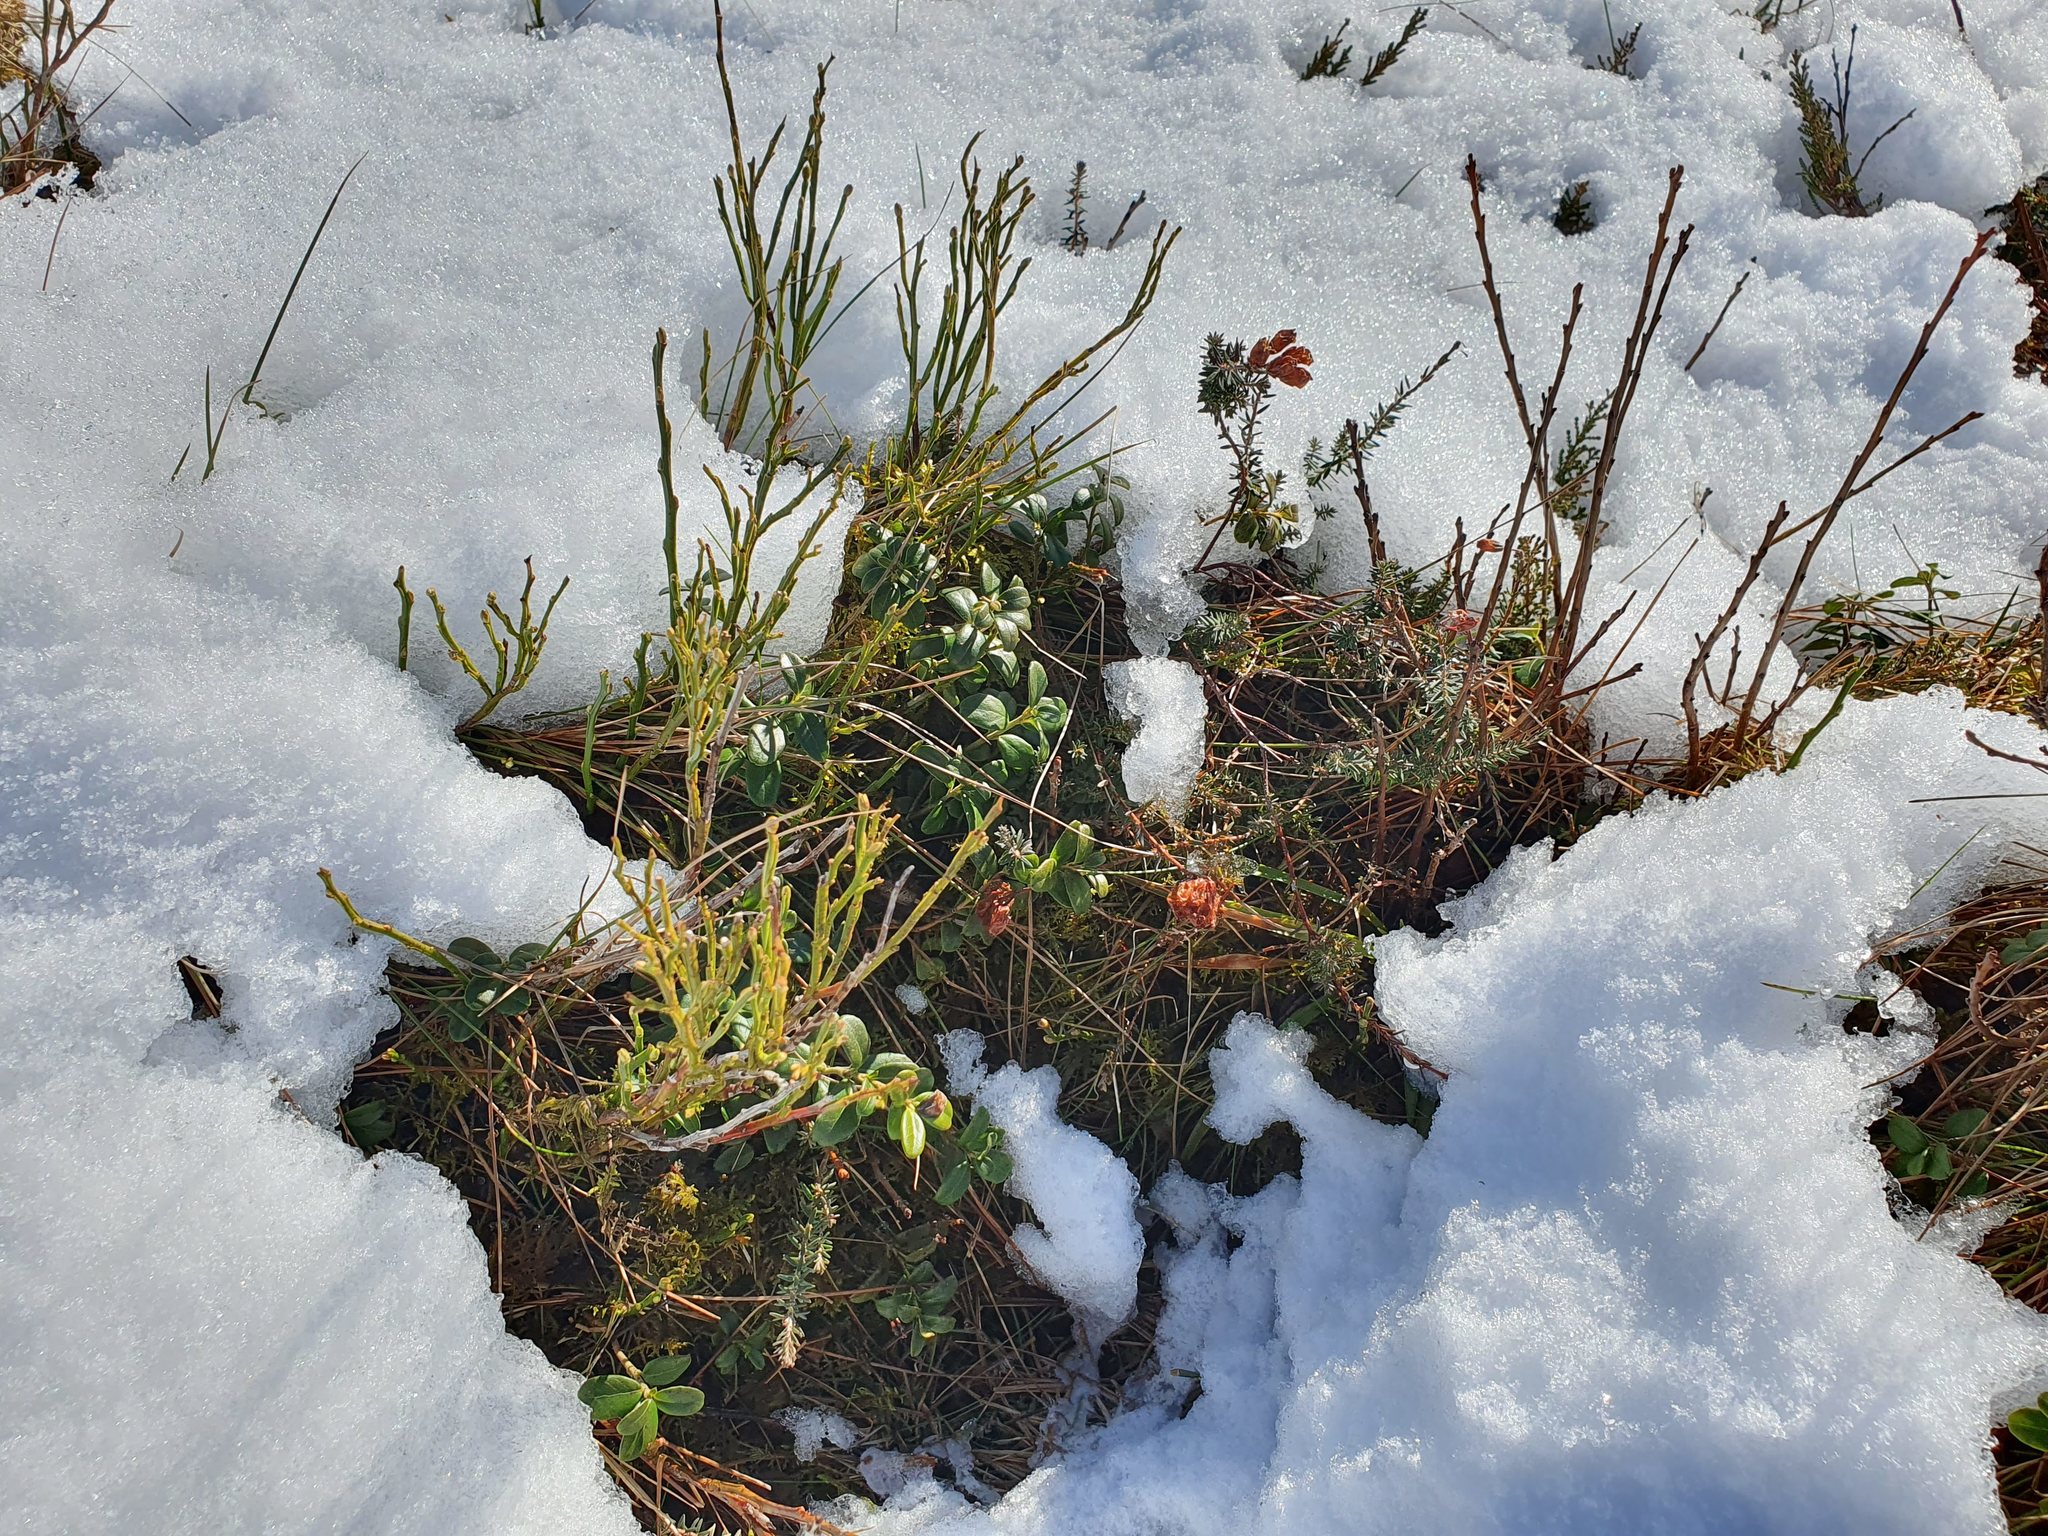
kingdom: Plantae
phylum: Tracheophyta
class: Magnoliopsida
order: Ericales
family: Ericaceae
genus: Vaccinium
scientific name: Vaccinium vitis-idaea
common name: Cowberry
